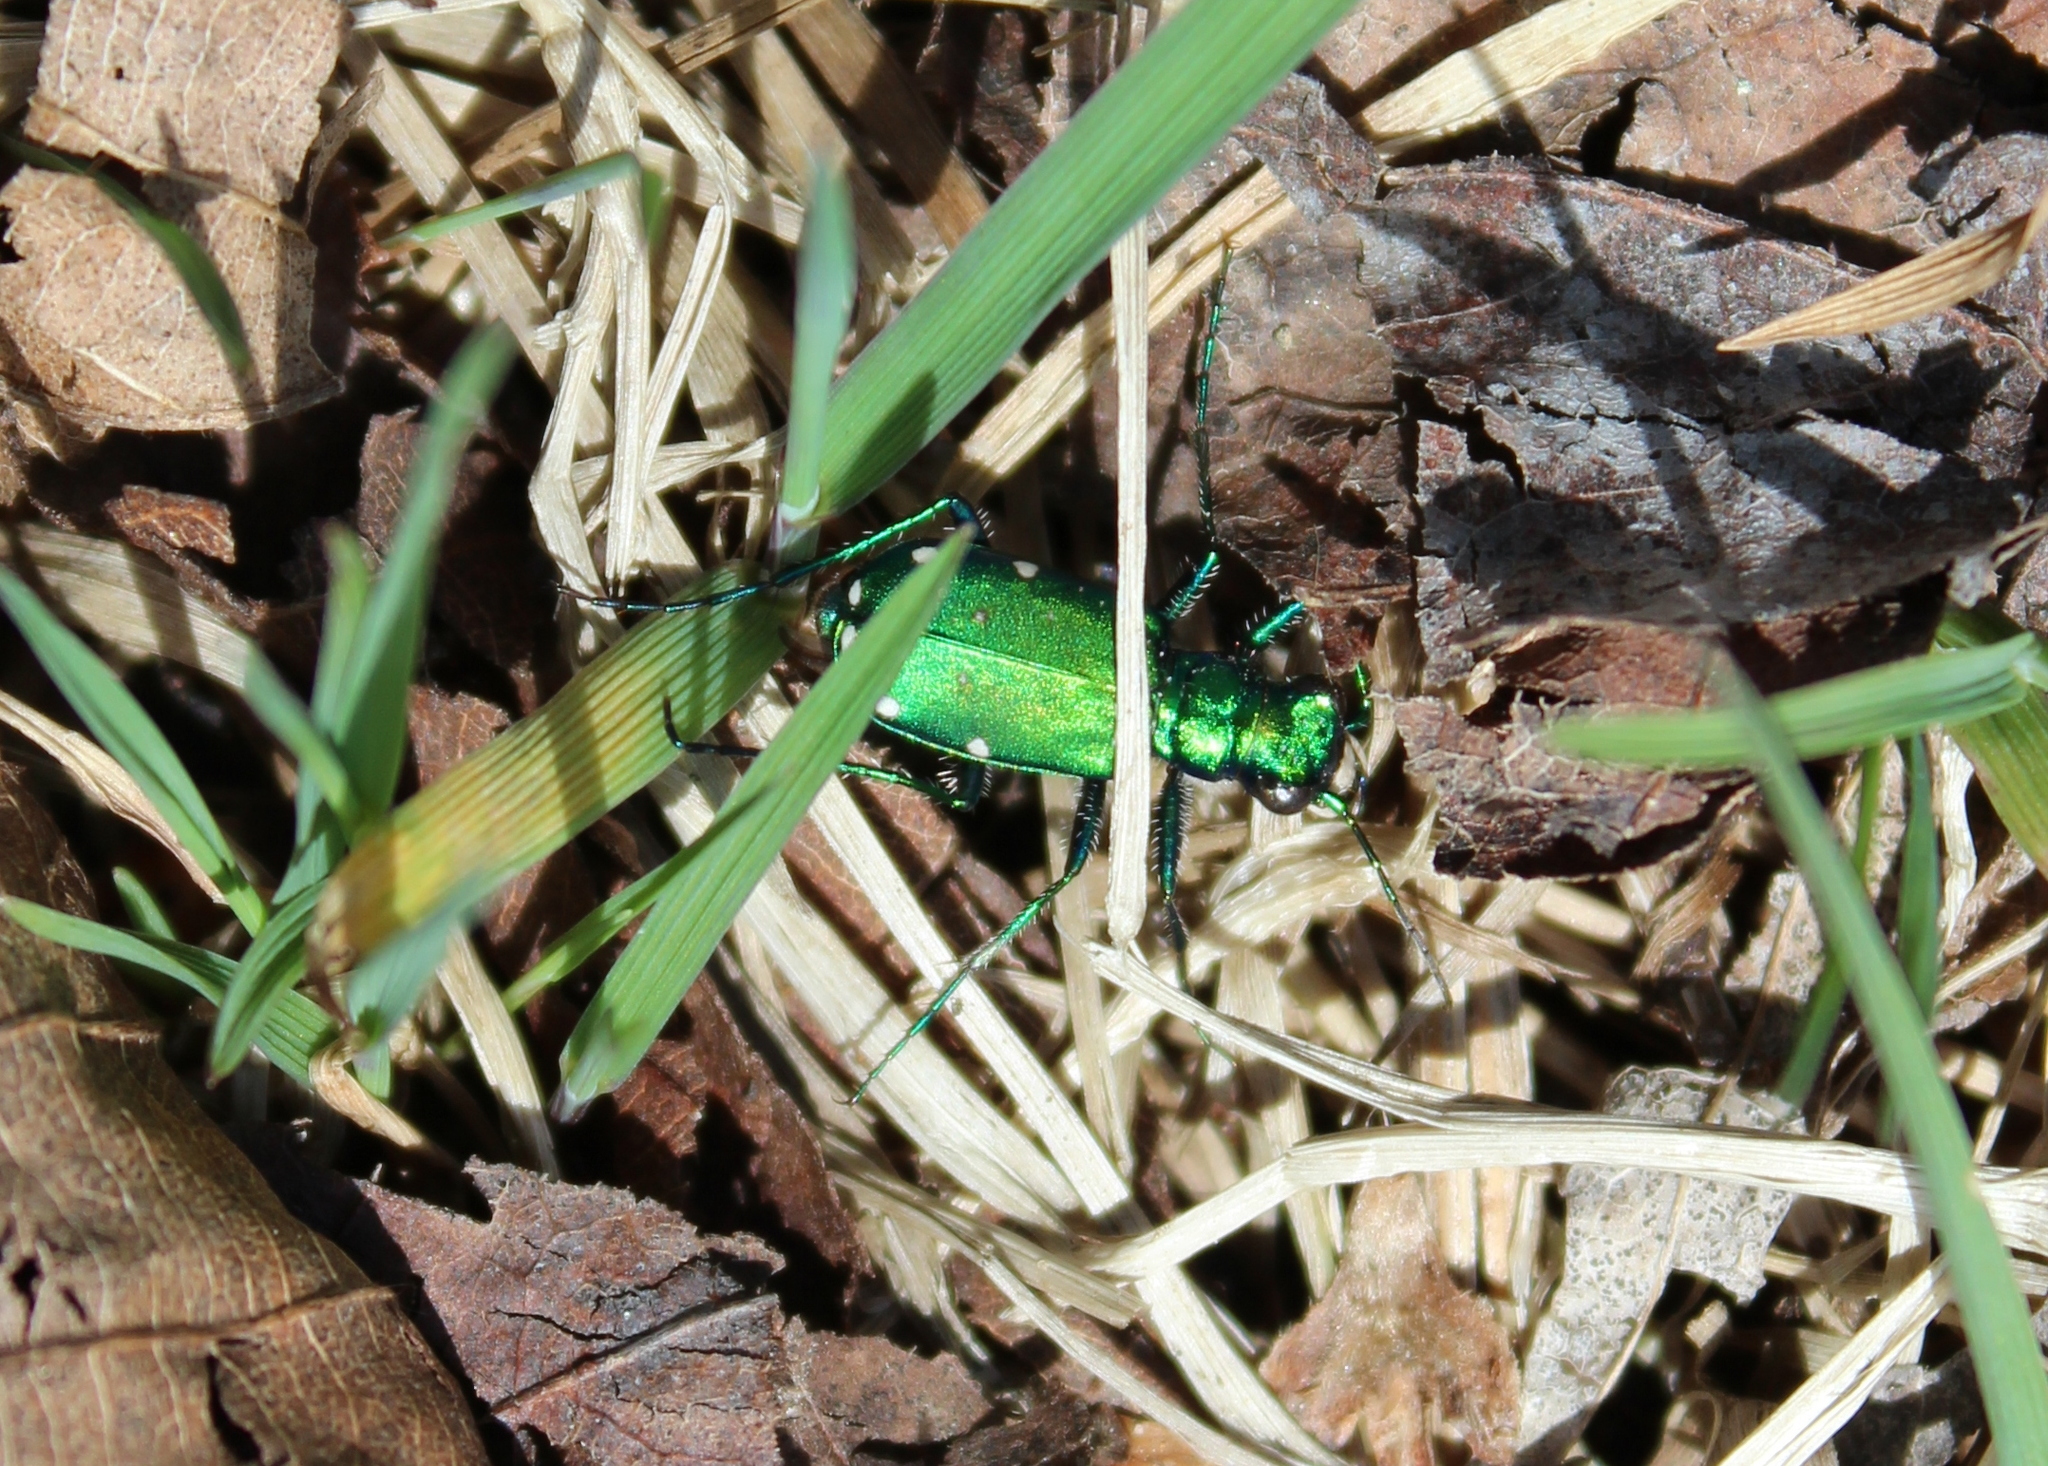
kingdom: Animalia
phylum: Arthropoda
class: Insecta
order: Coleoptera
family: Carabidae
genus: Cicindela
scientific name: Cicindela sexguttata
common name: Six-spotted tiger beetle
